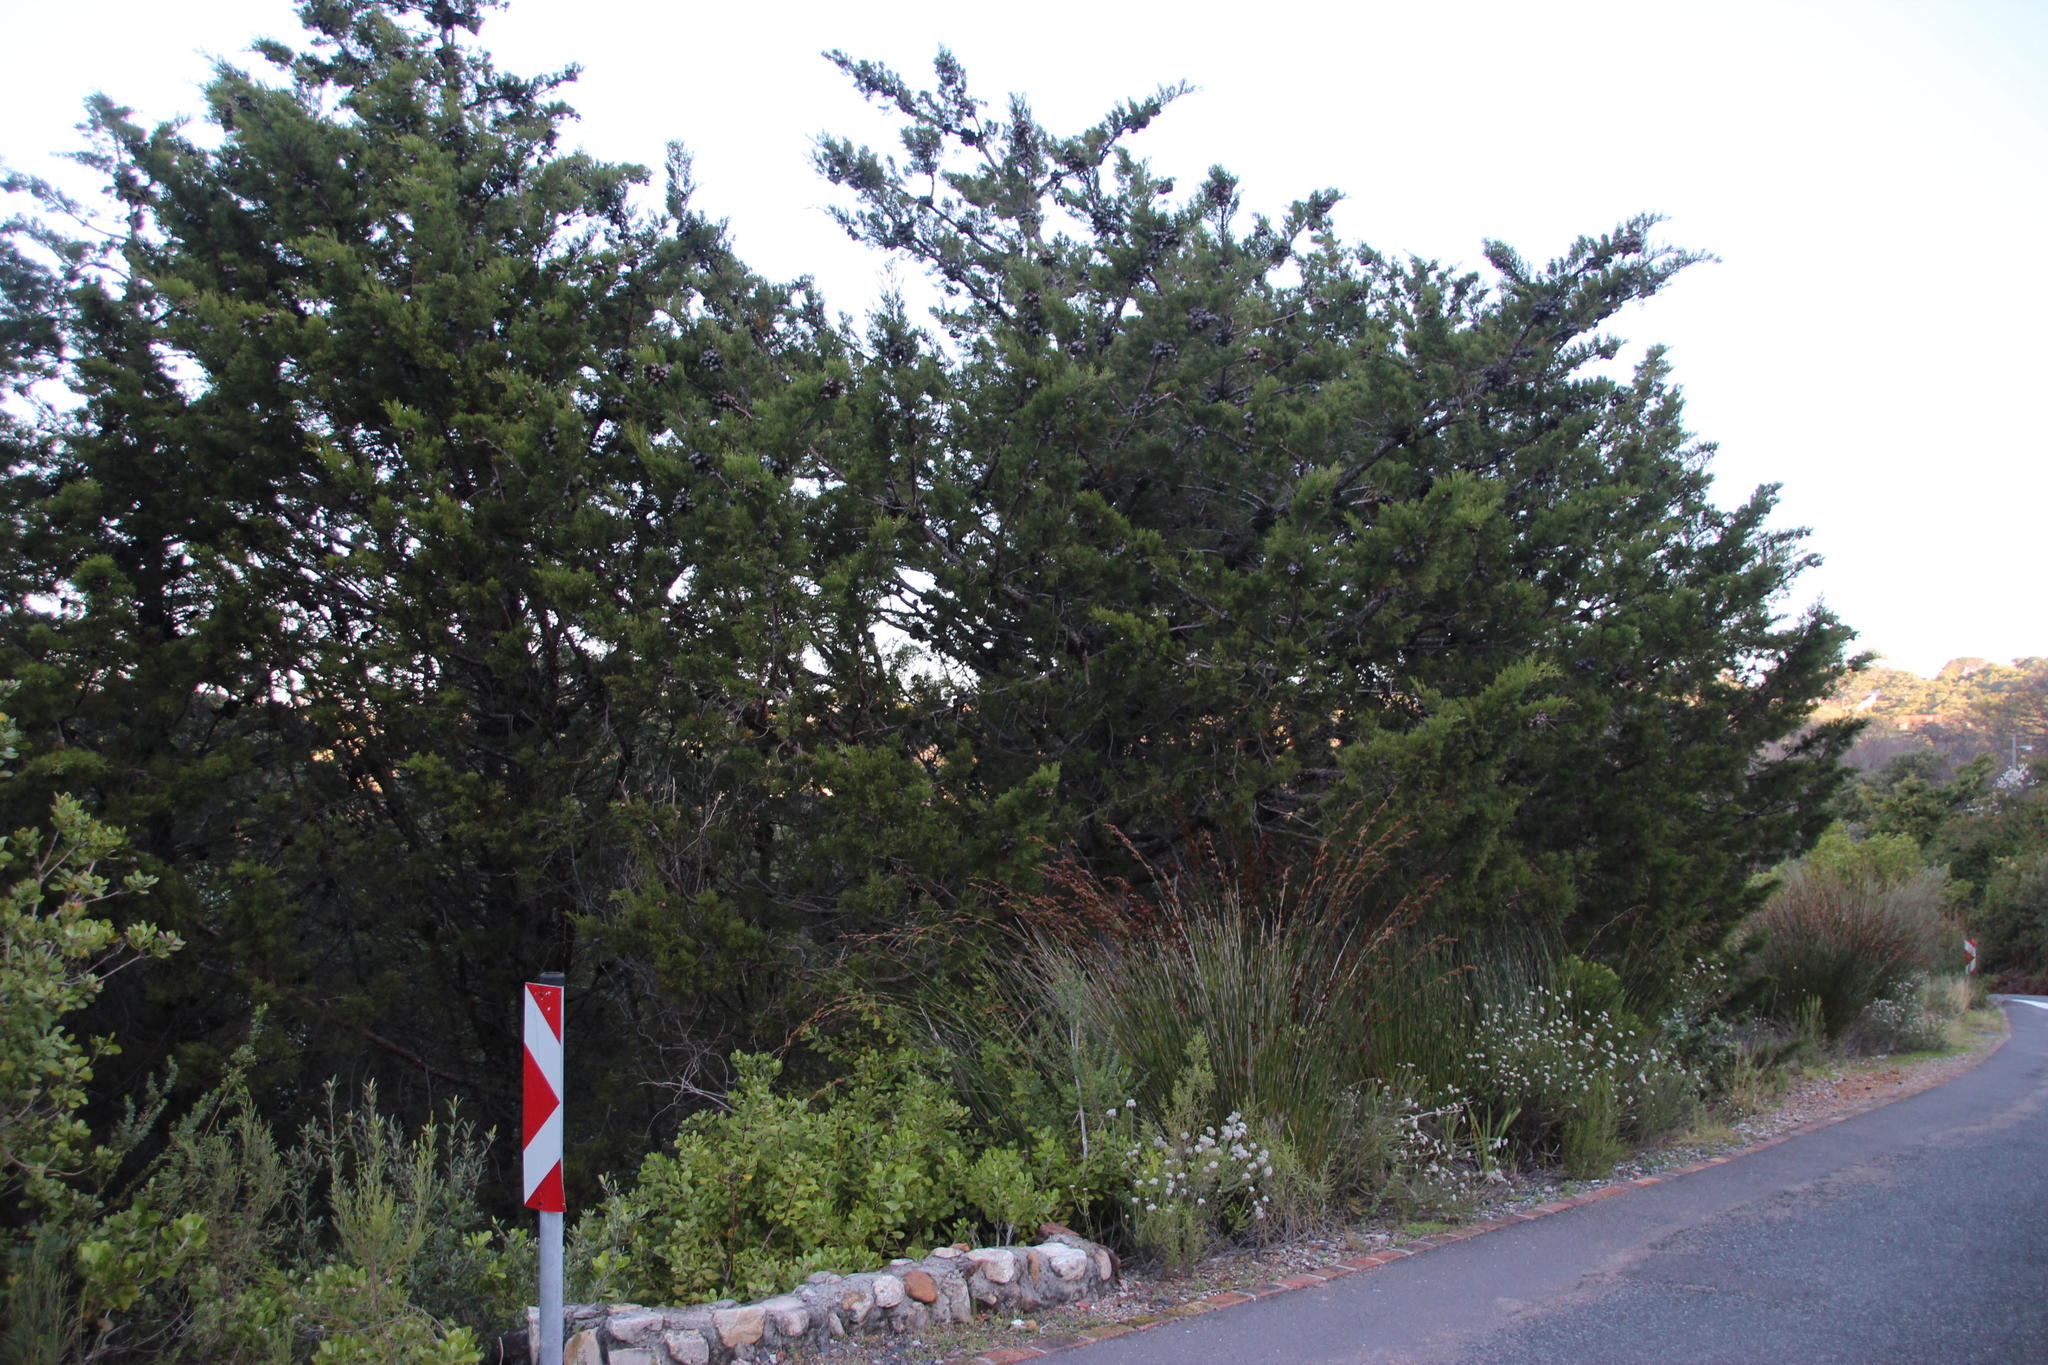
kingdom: Plantae
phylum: Tracheophyta
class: Pinopsida
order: Pinales
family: Cupressaceae
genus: Widdringtonia
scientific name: Widdringtonia schwarzii
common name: Baviaans cedar
